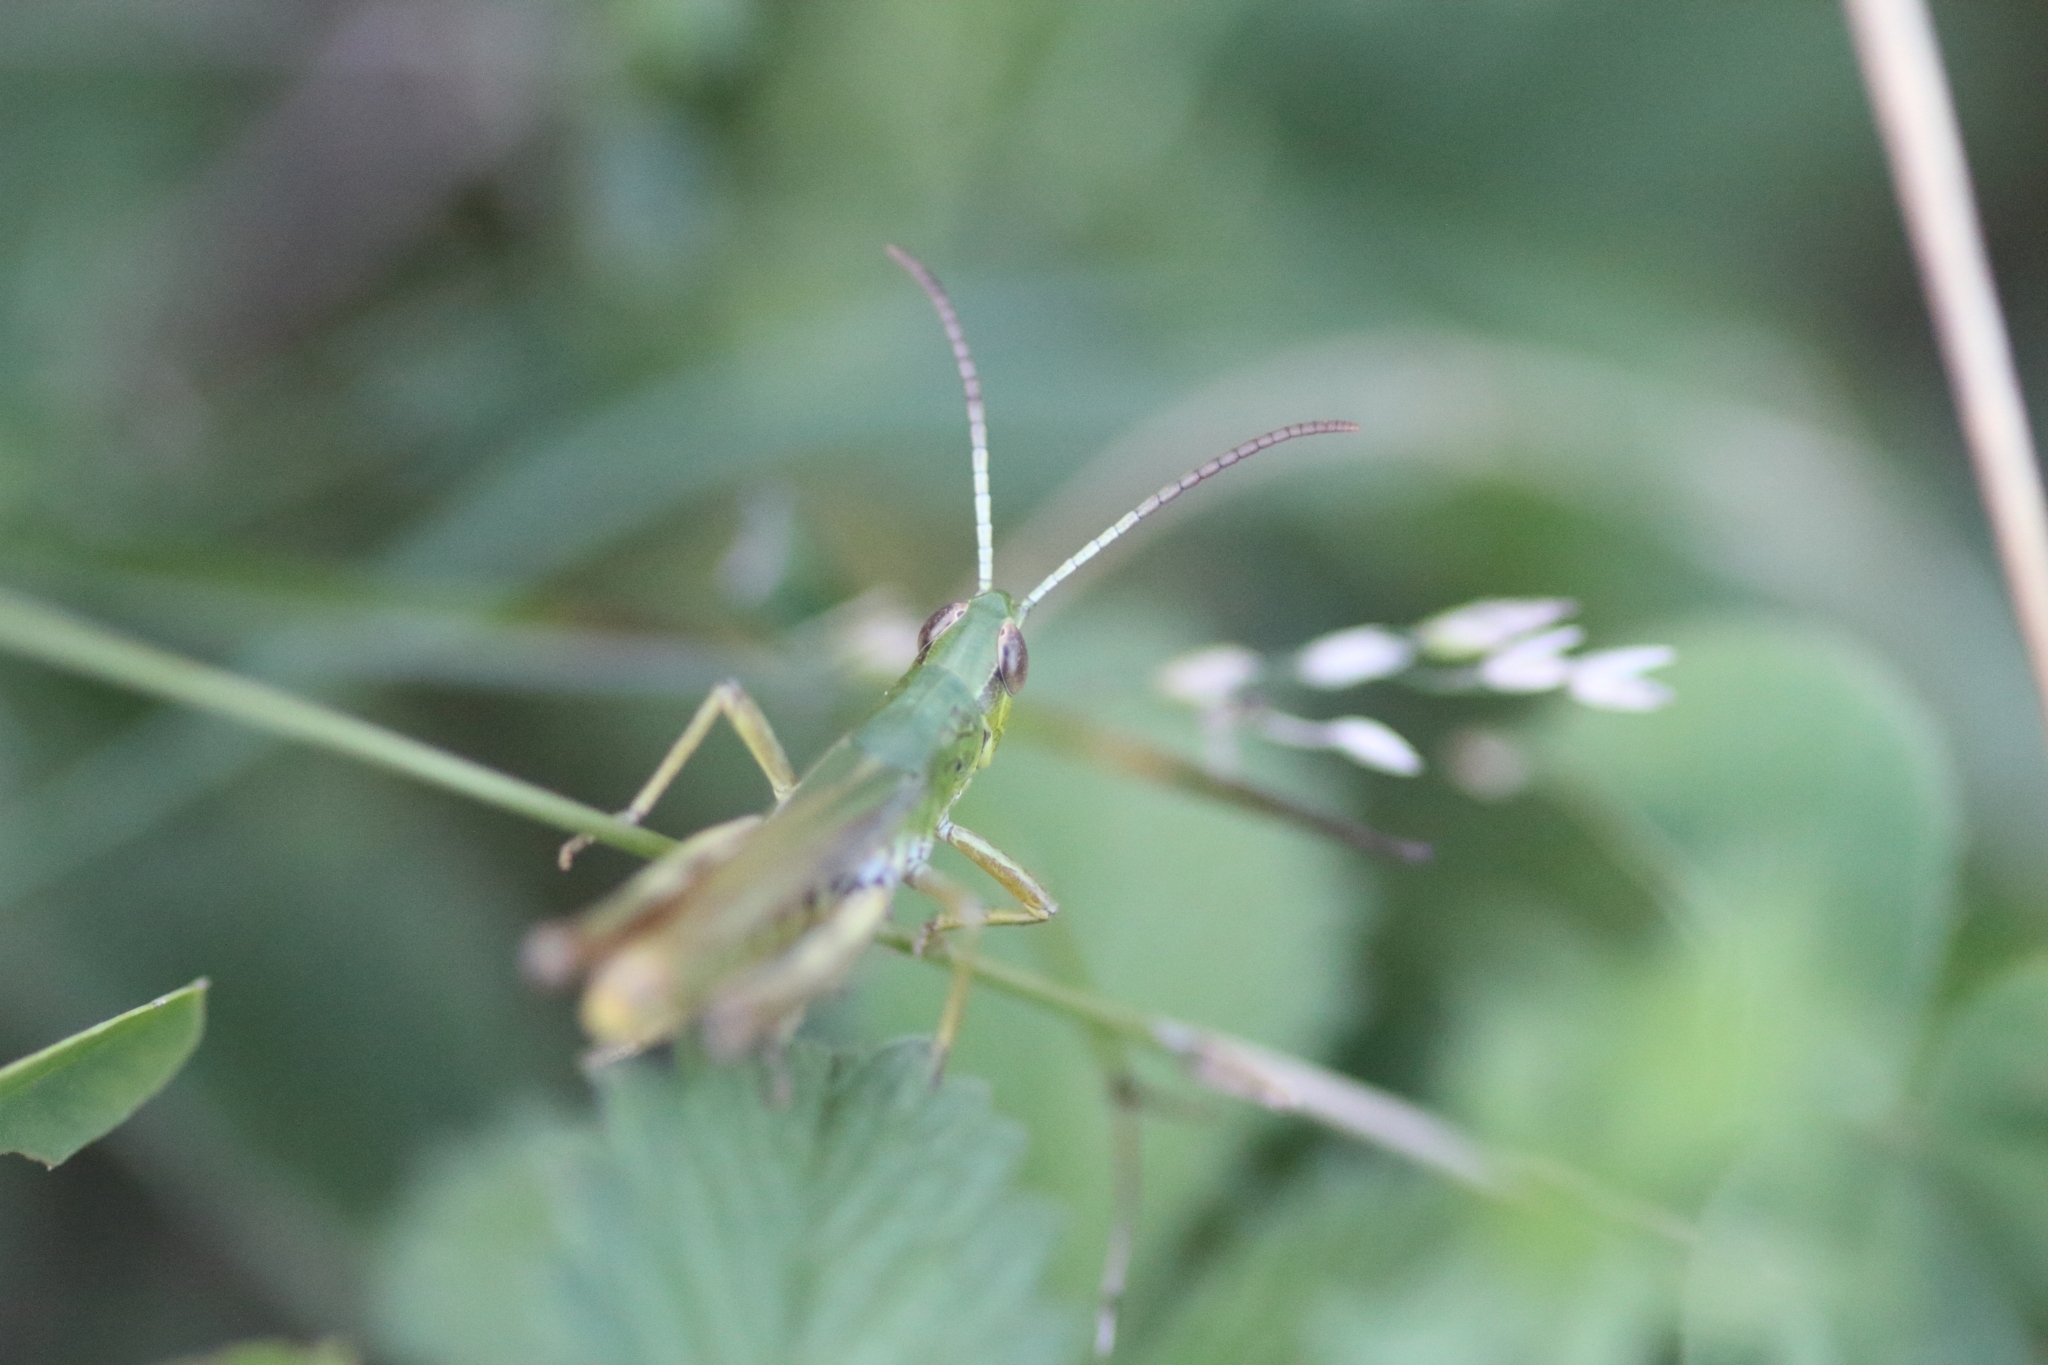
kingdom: Animalia
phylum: Arthropoda
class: Insecta
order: Orthoptera
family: Acrididae
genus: Pseudochorthippus
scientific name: Pseudochorthippus parallelus
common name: Meadow grasshopper
